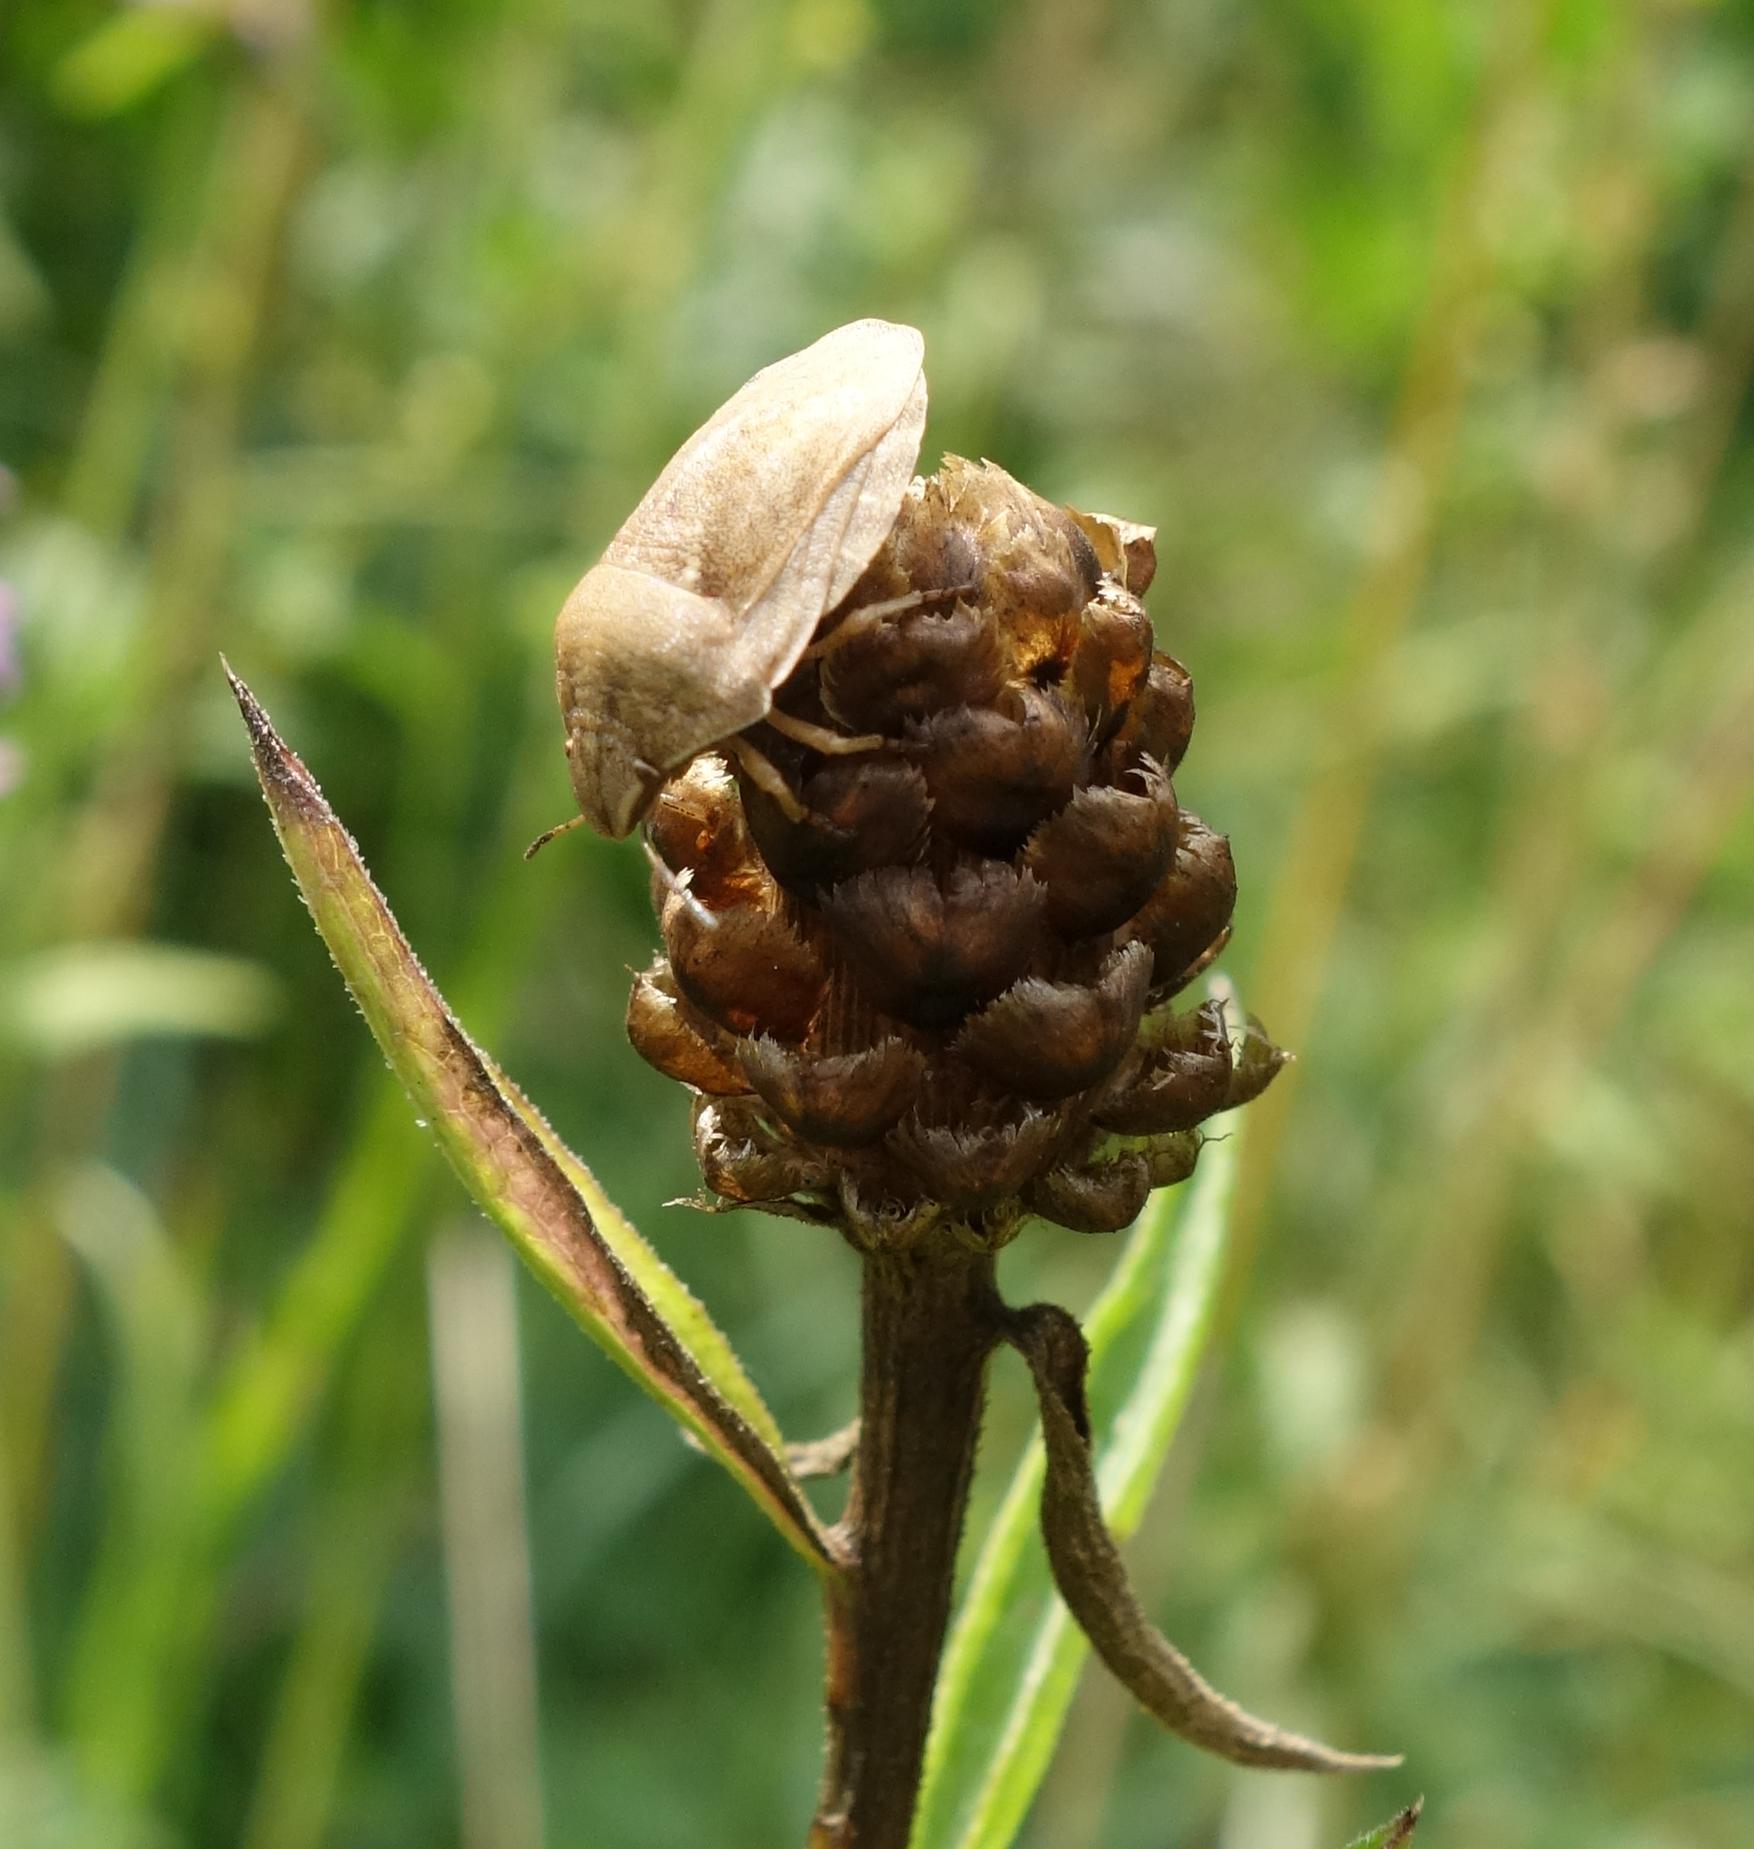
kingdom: Animalia
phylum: Arthropoda
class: Insecta
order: Hemiptera
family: Scutelleridae
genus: Eurygaster
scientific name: Eurygaster austriaca
